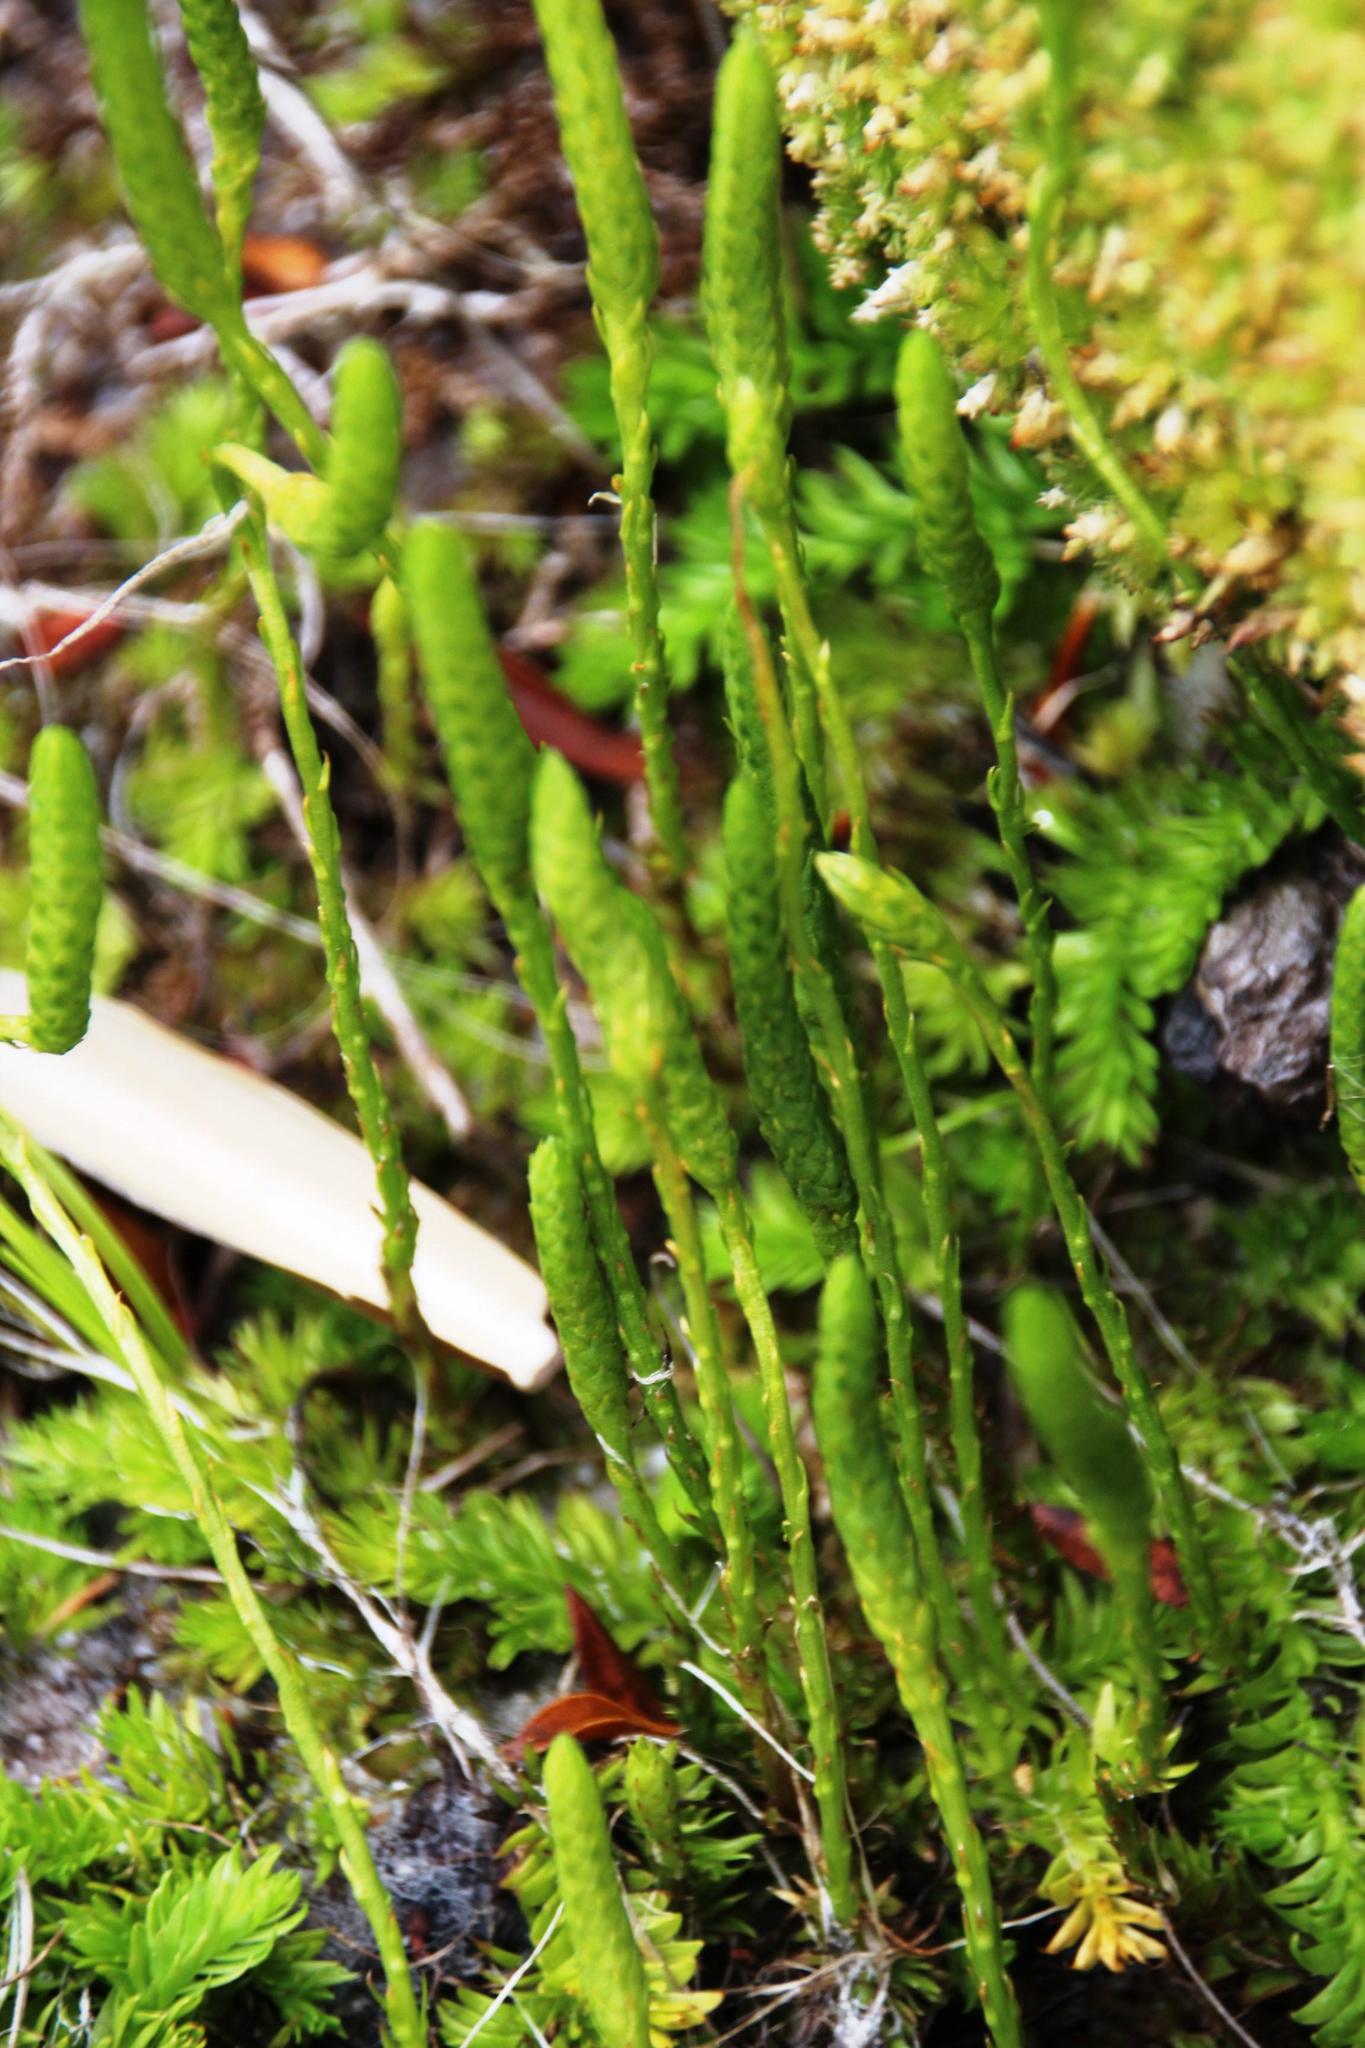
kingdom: Plantae
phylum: Tracheophyta
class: Lycopodiopsida
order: Lycopodiales
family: Lycopodiaceae
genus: Pseudolycopodiella
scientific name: Pseudolycopodiella caroliniana
